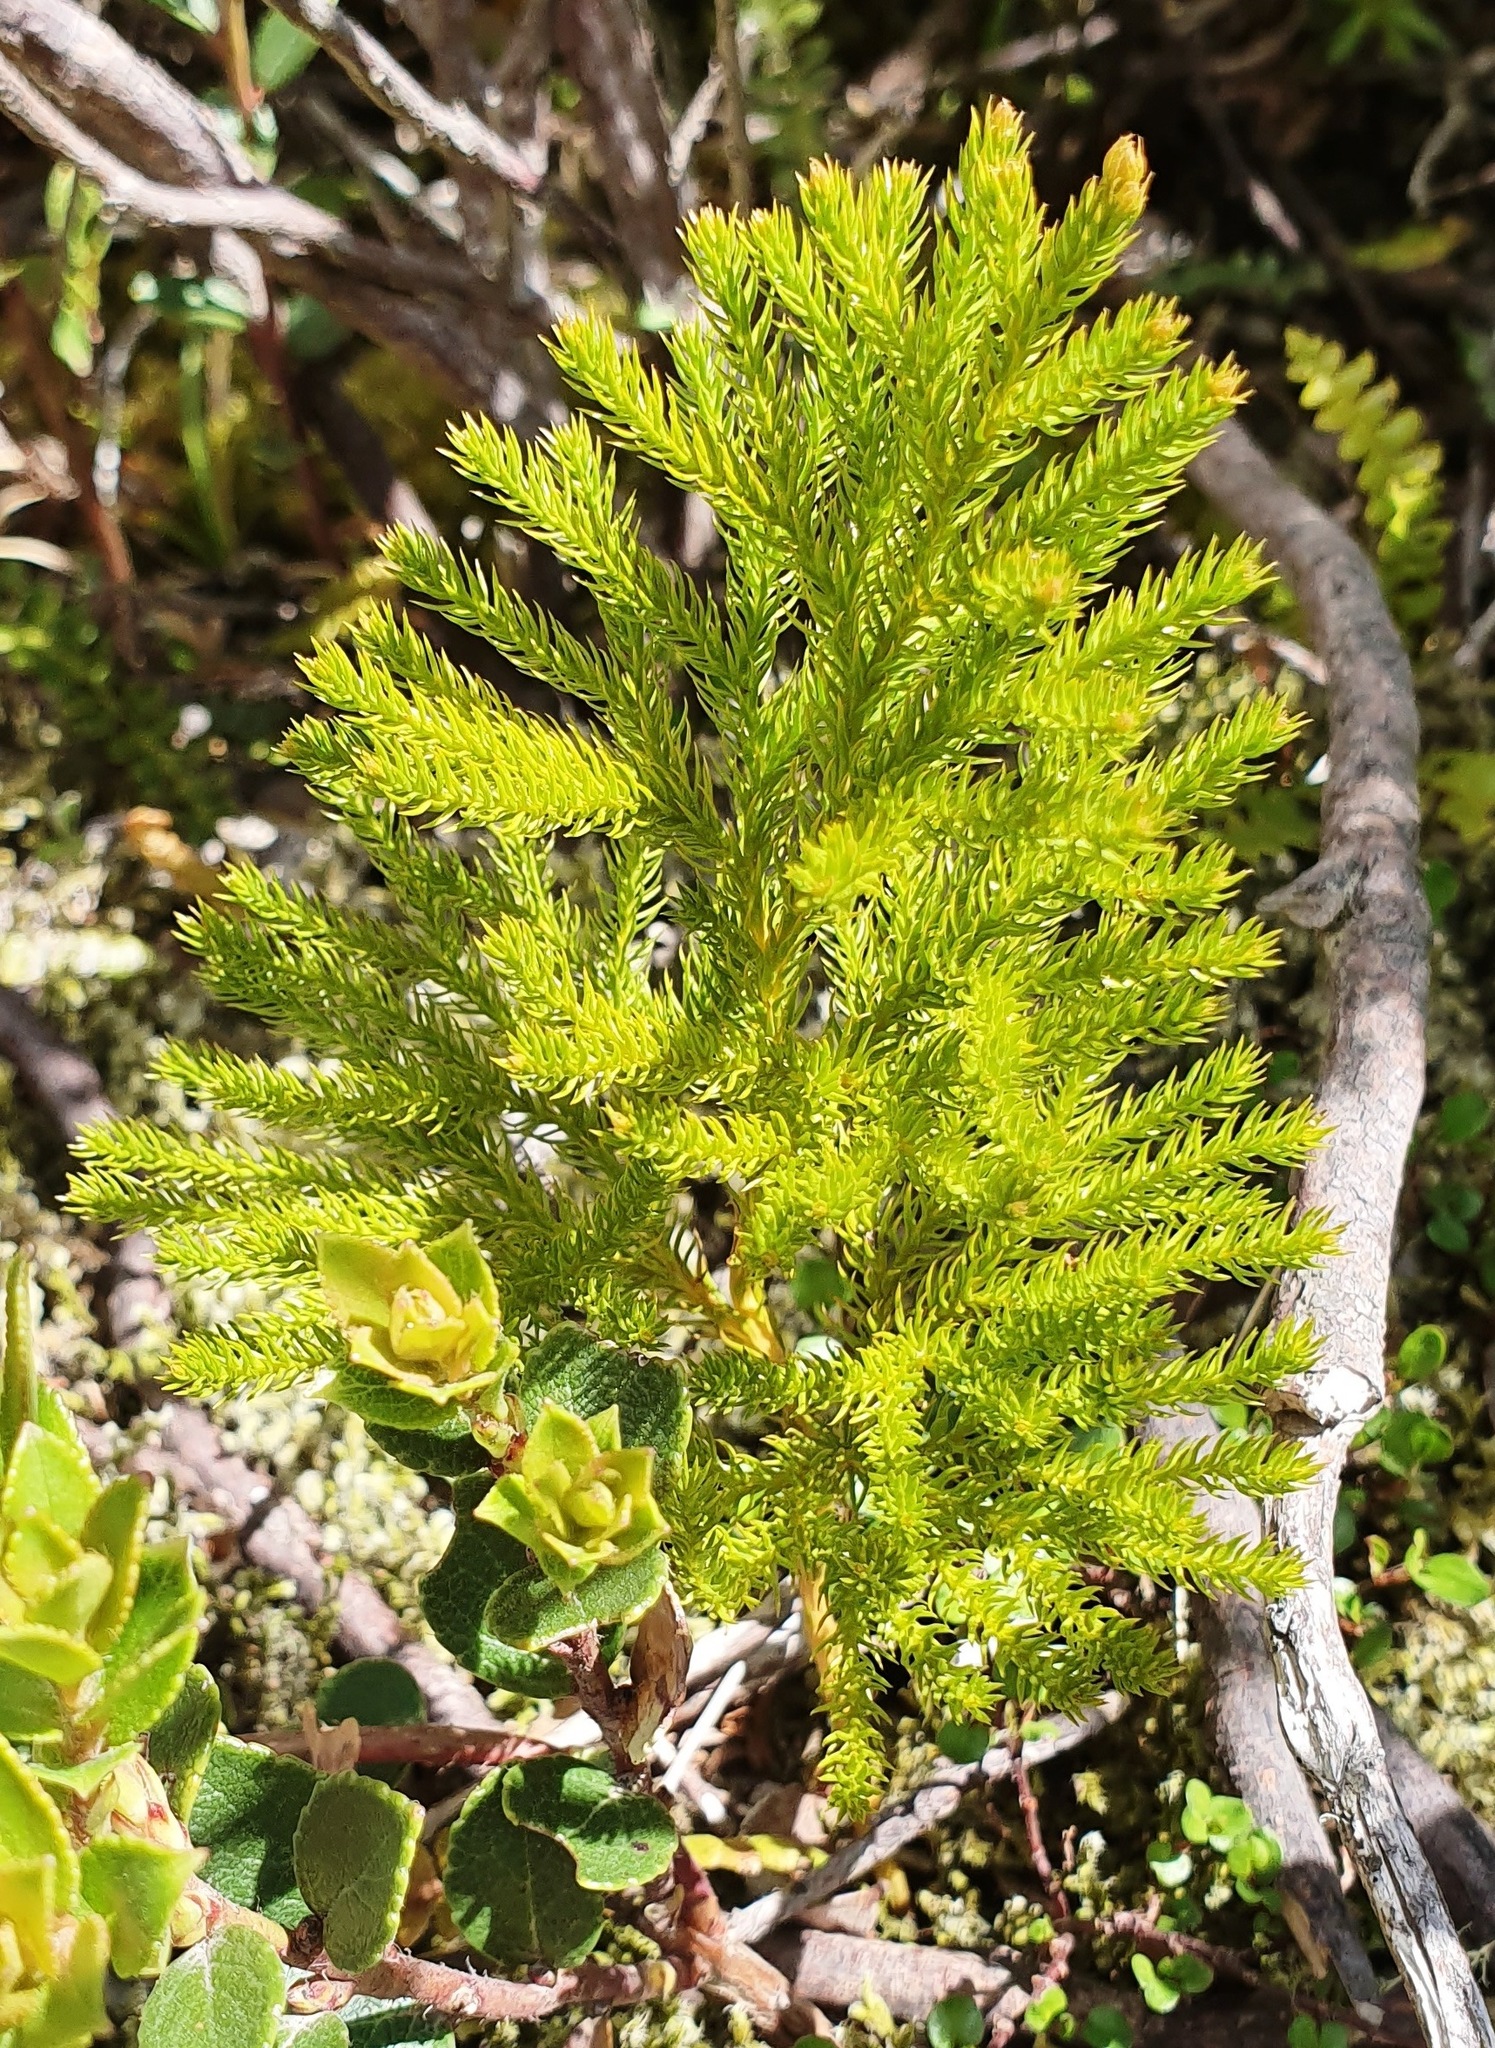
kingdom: Plantae
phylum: Tracheophyta
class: Lycopodiopsida
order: Lycopodiales
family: Lycopodiaceae
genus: Austrolycopodium
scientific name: Austrolycopodium fastigiatum
